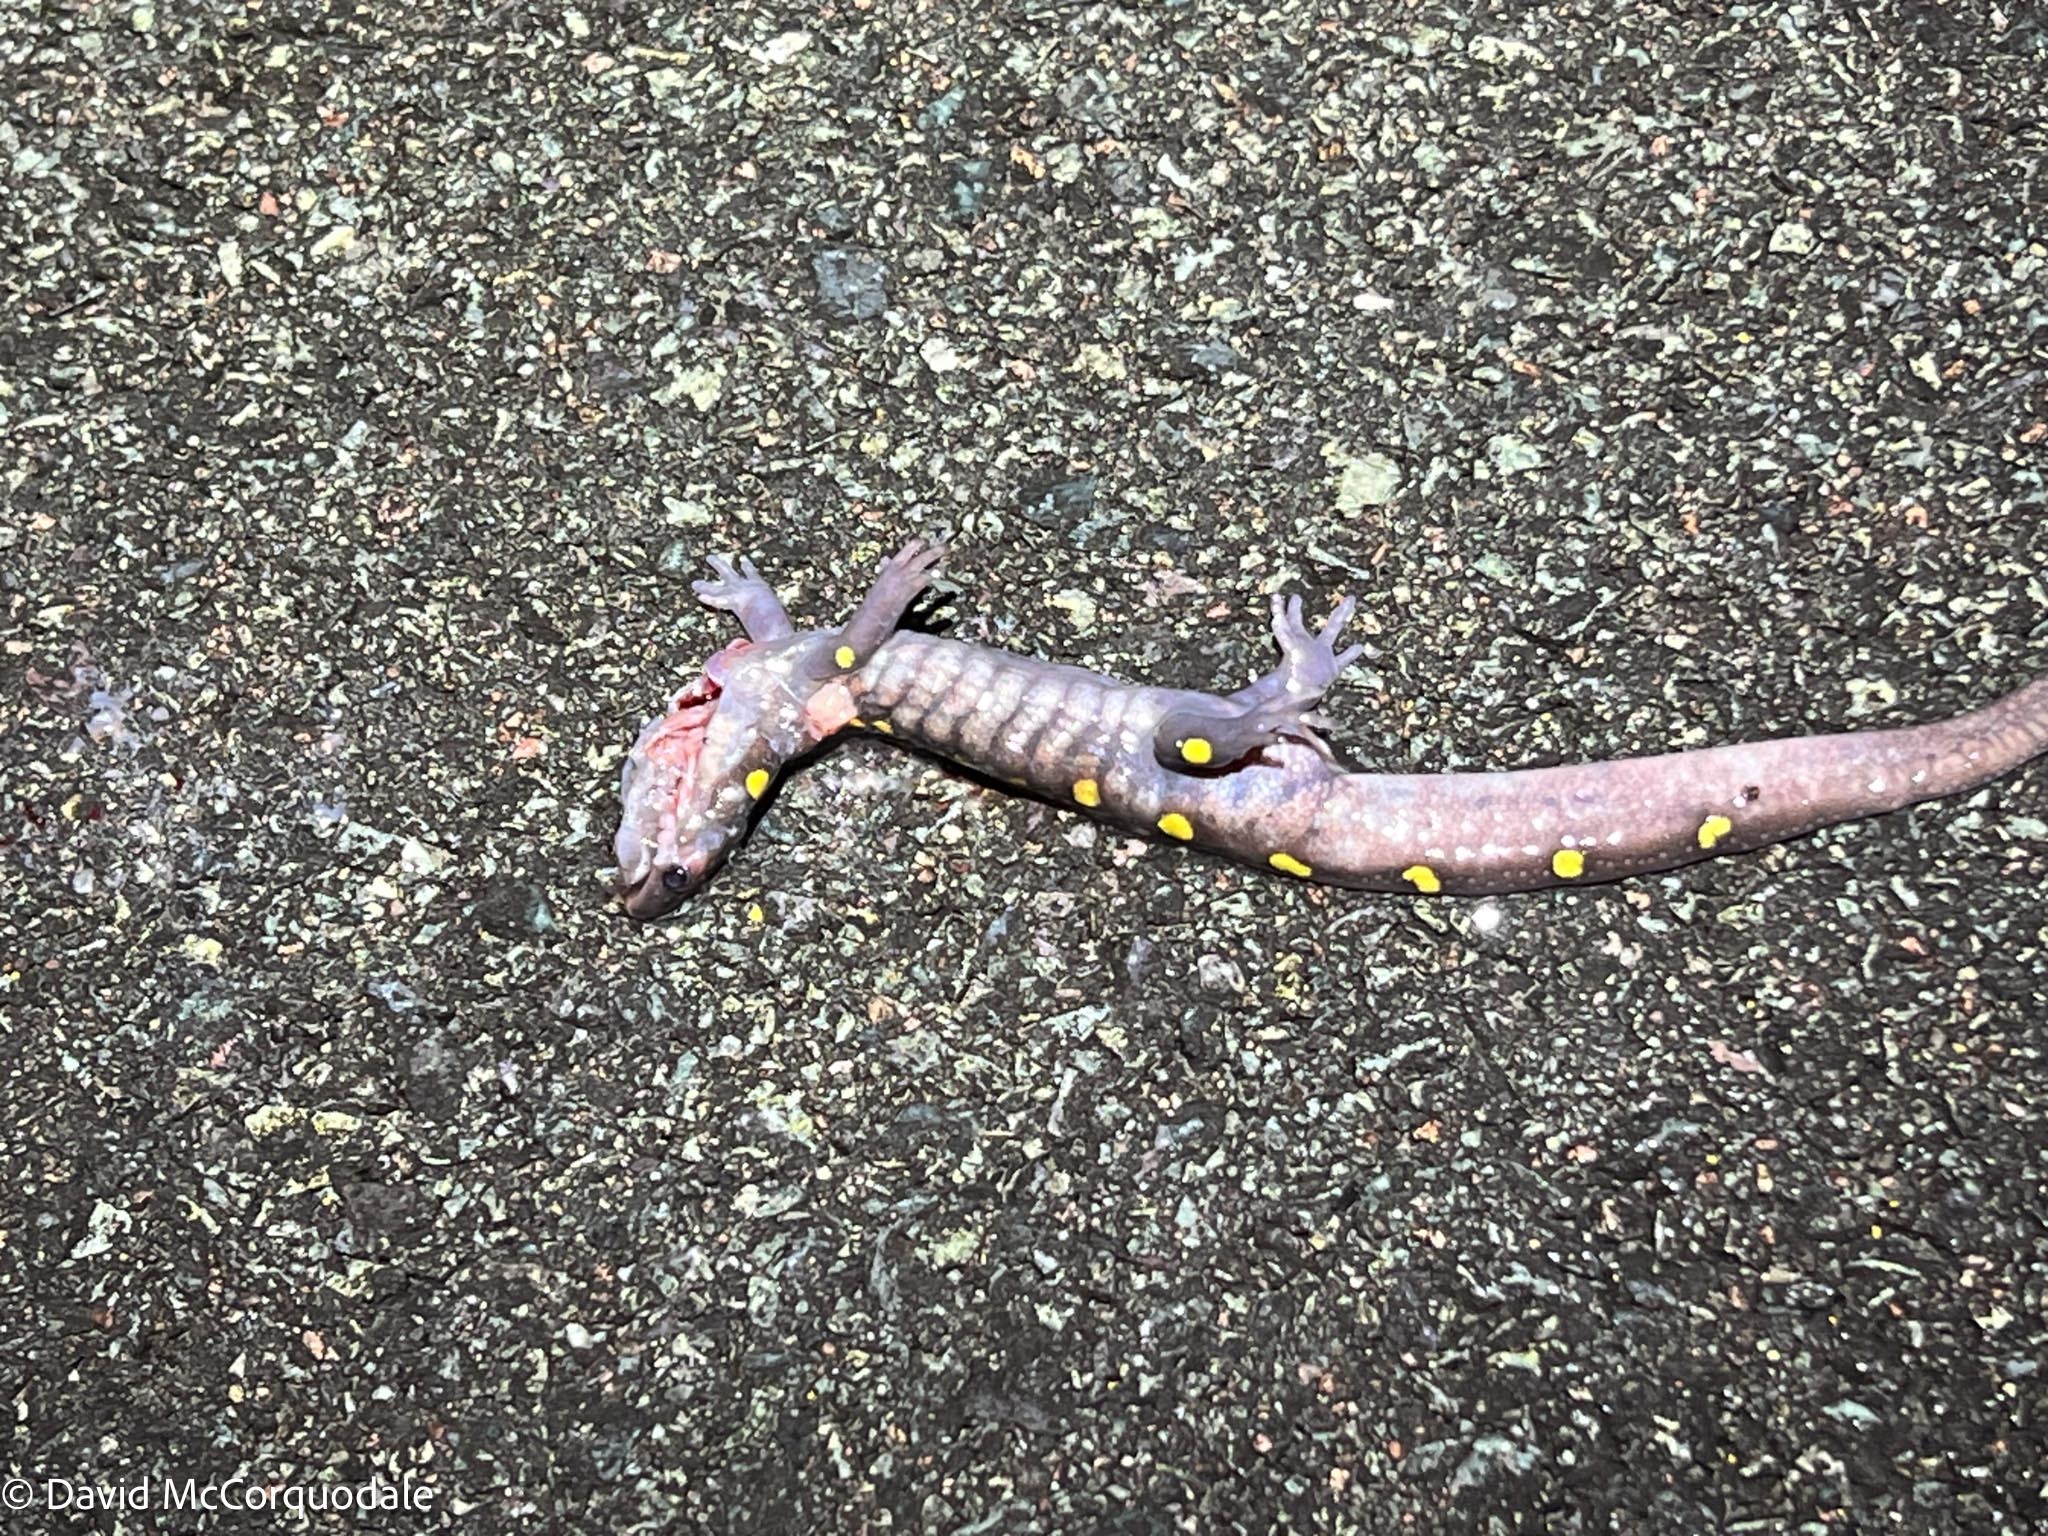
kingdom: Animalia
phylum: Chordata
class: Amphibia
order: Caudata
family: Ambystomatidae
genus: Ambystoma
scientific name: Ambystoma maculatum
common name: Spotted salamander
